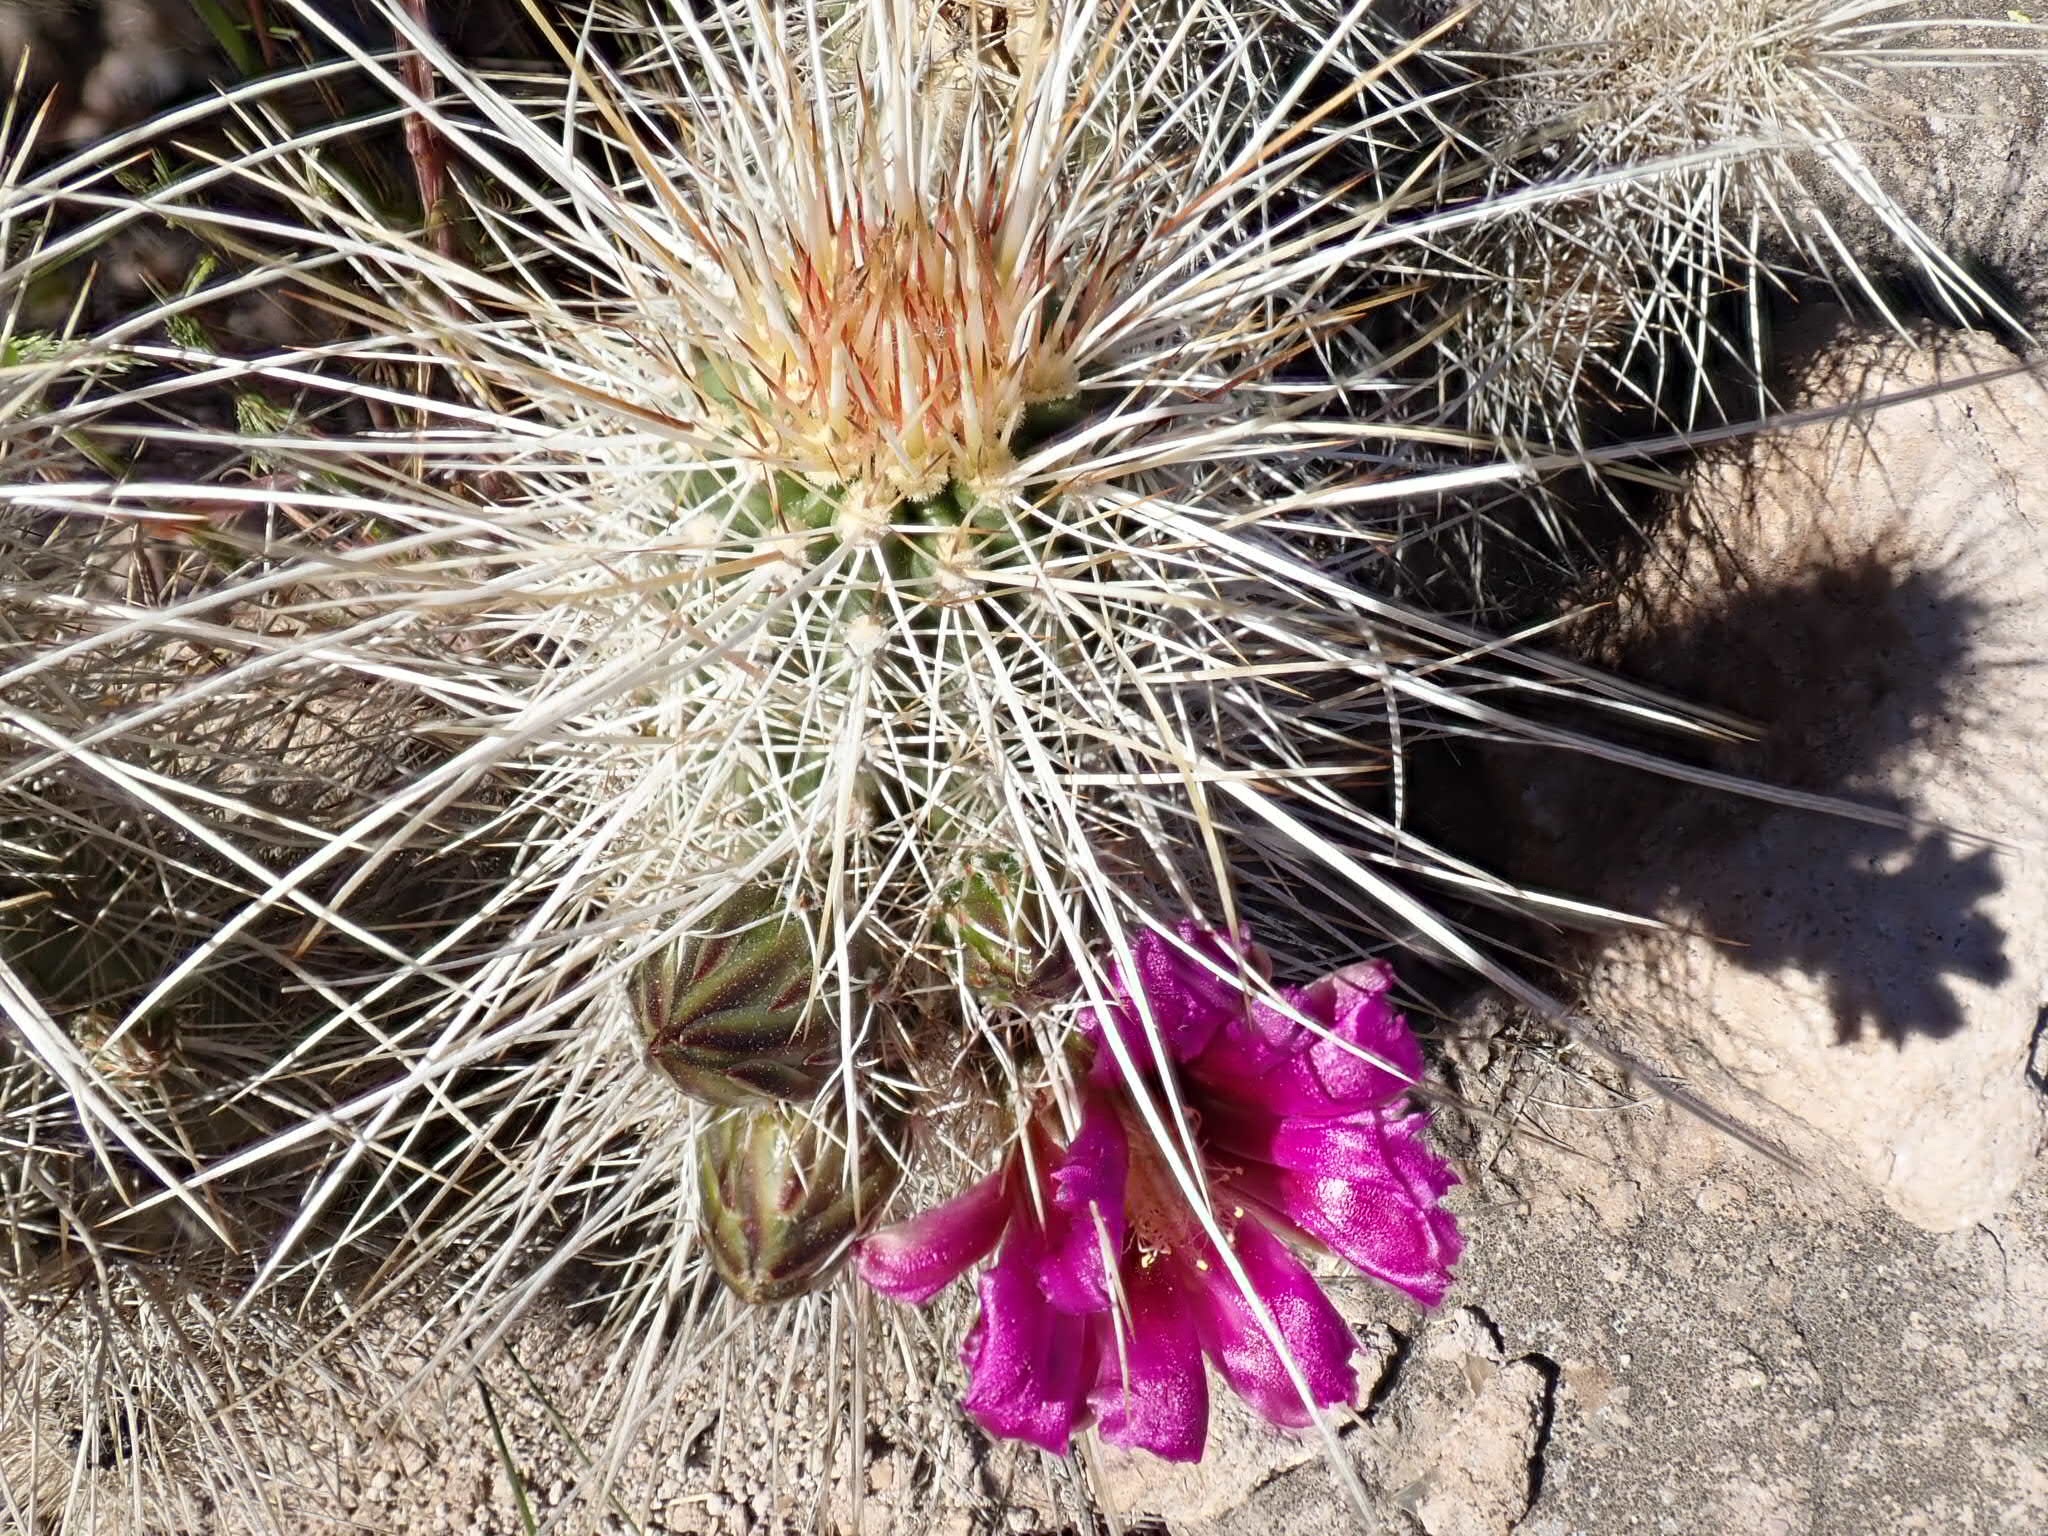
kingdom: Plantae
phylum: Tracheophyta
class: Magnoliopsida
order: Caryophyllales
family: Cactaceae
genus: Echinocereus
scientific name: Echinocereus bonkerae
